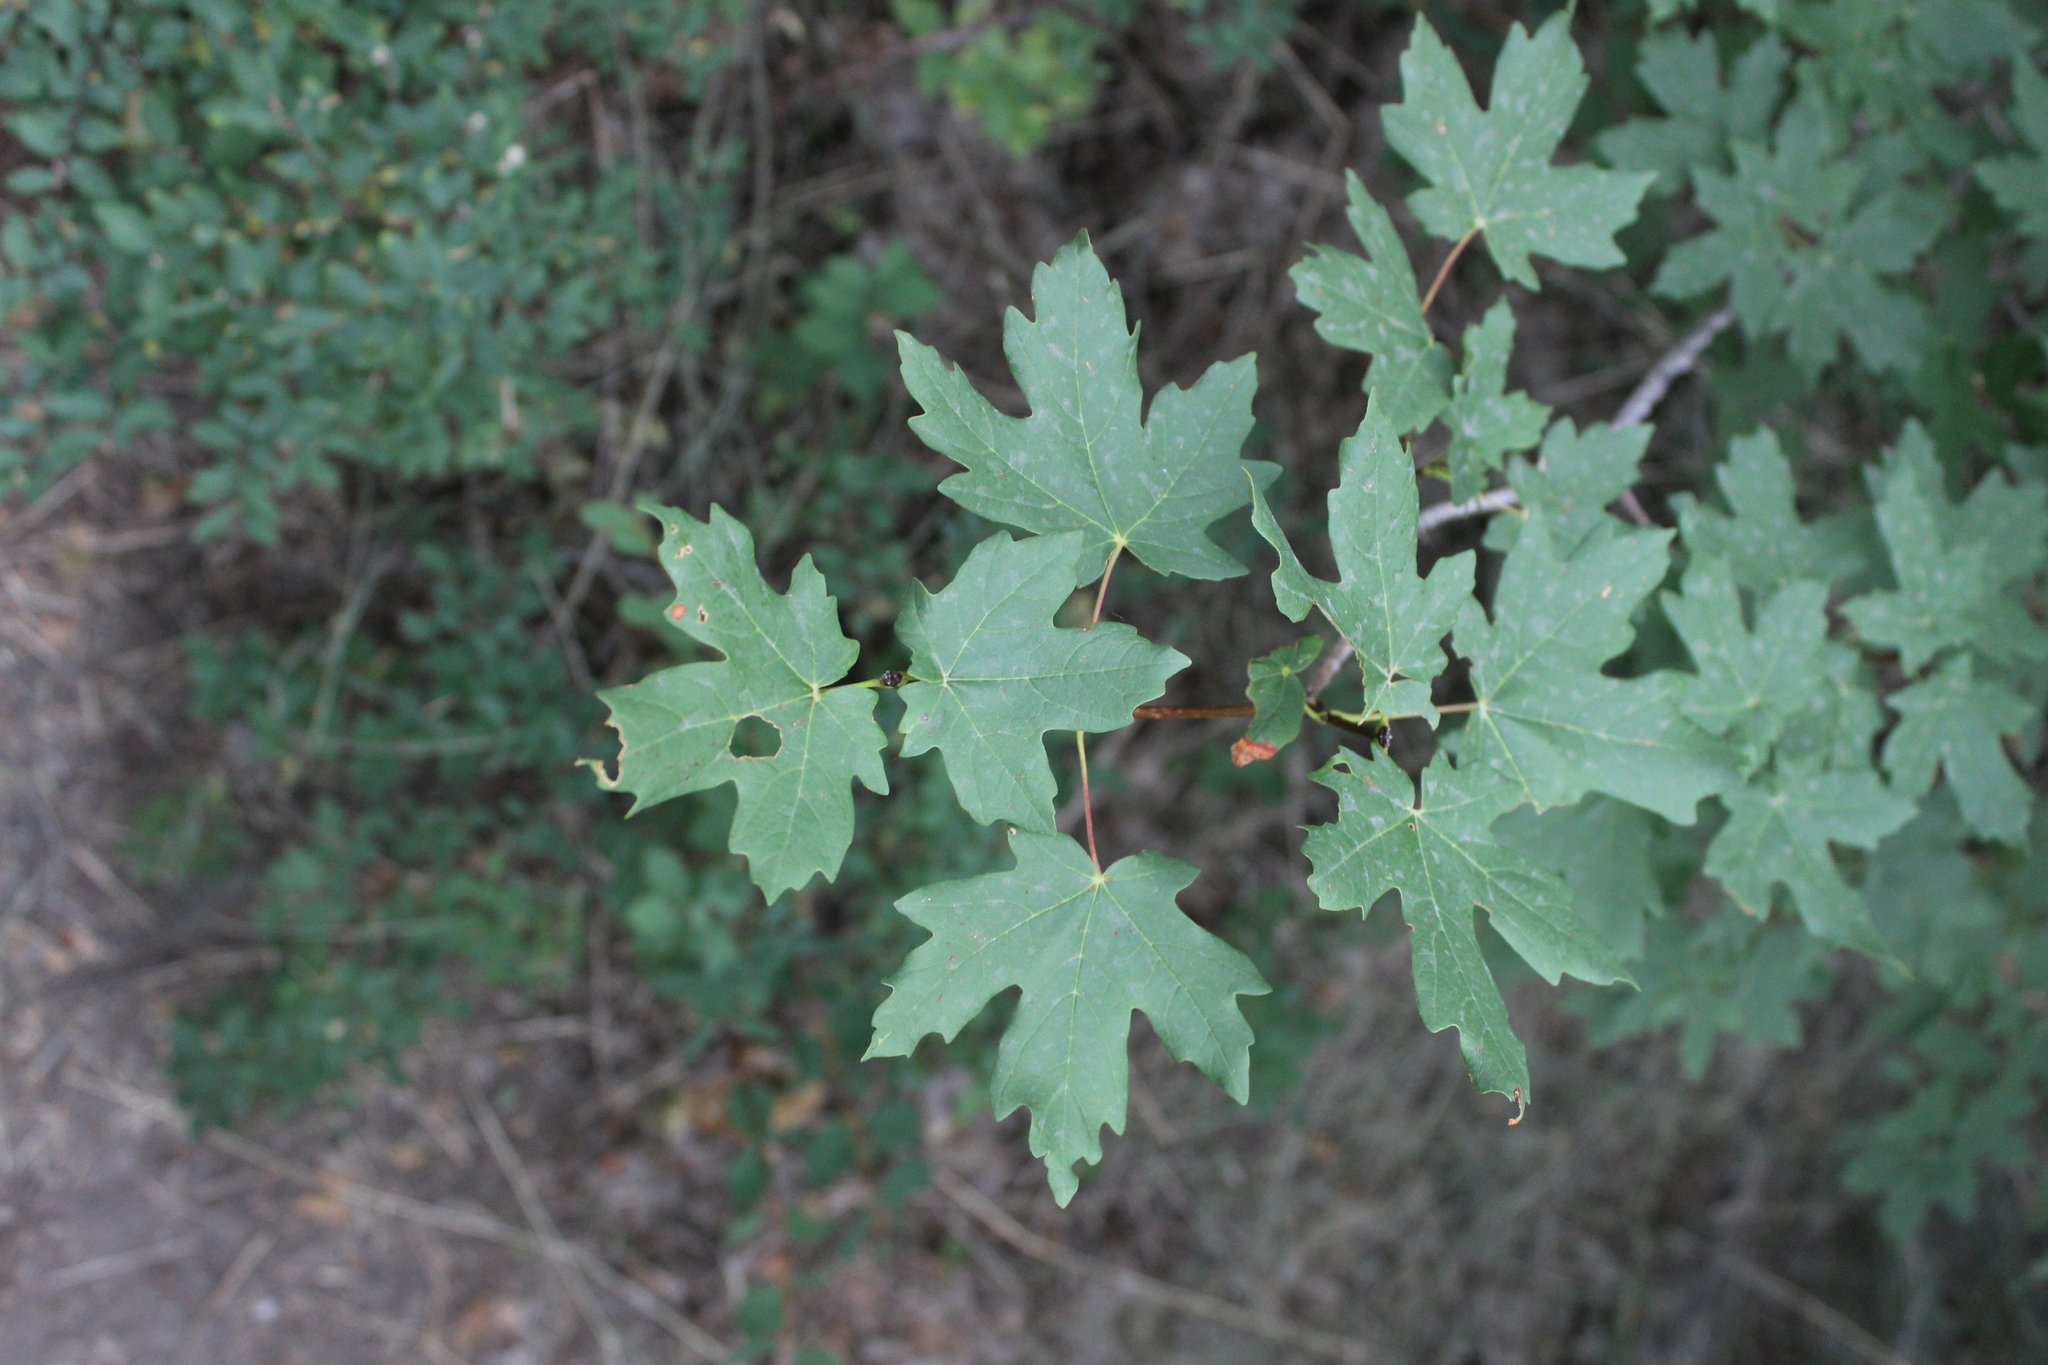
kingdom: Plantae
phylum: Tracheophyta
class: Magnoliopsida
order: Sapindales
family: Sapindaceae
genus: Acer
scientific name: Acer grandidentatum
